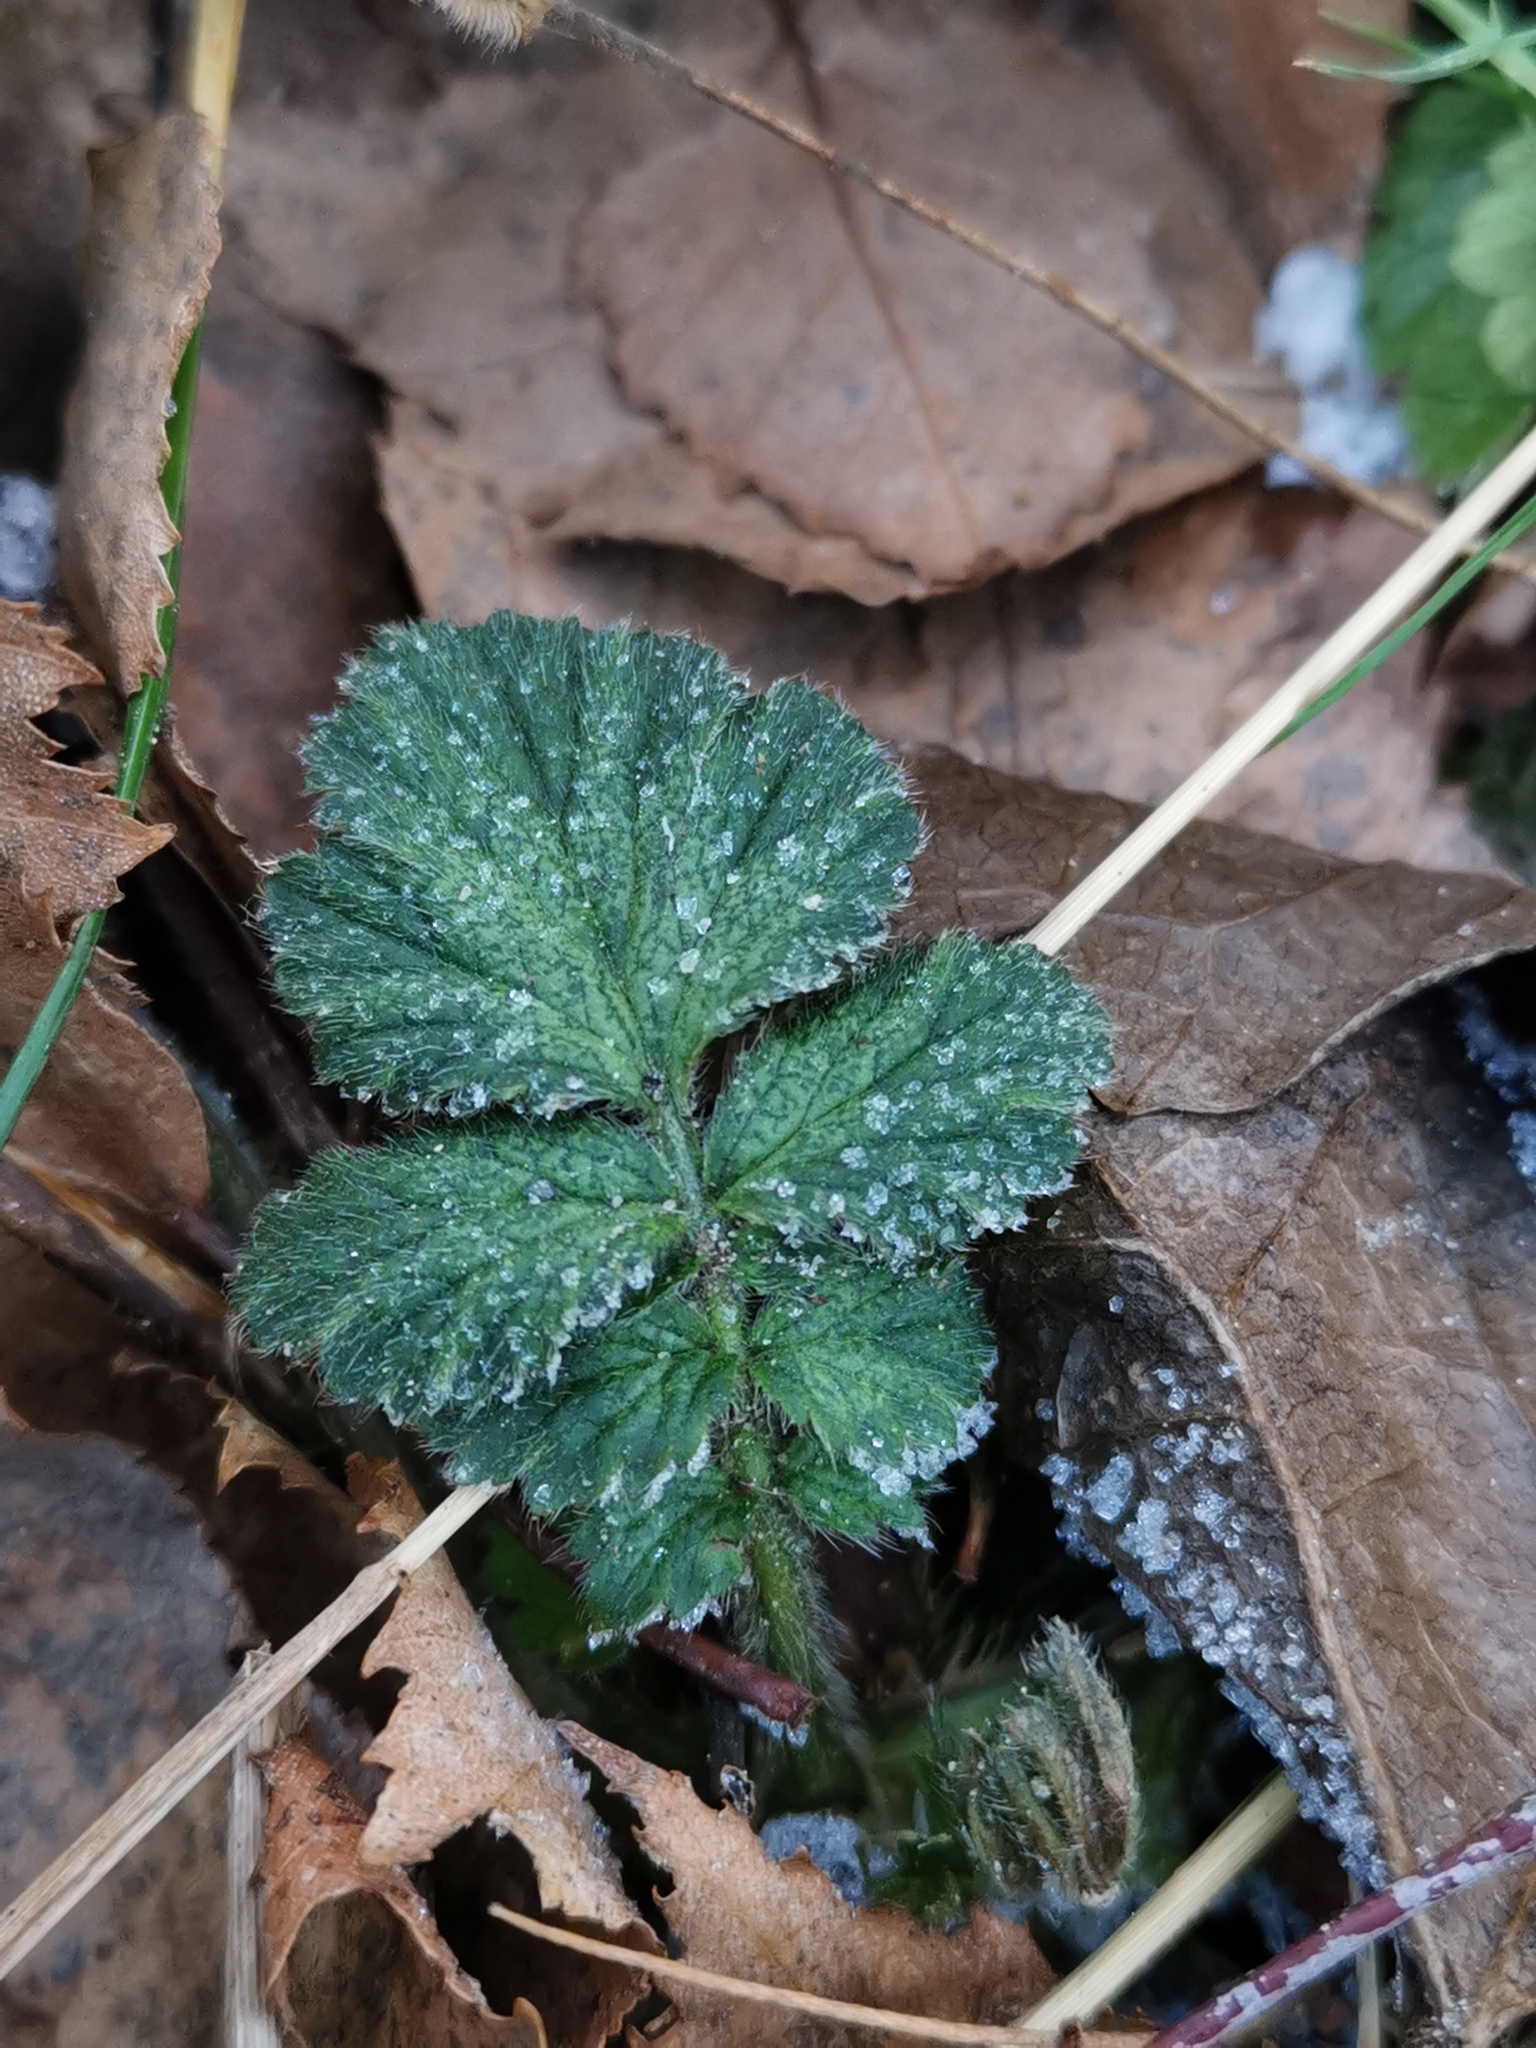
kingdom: Plantae
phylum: Tracheophyta
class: Magnoliopsida
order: Rosales
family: Rosaceae
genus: Geum
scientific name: Geum urbanum
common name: Wood avens
